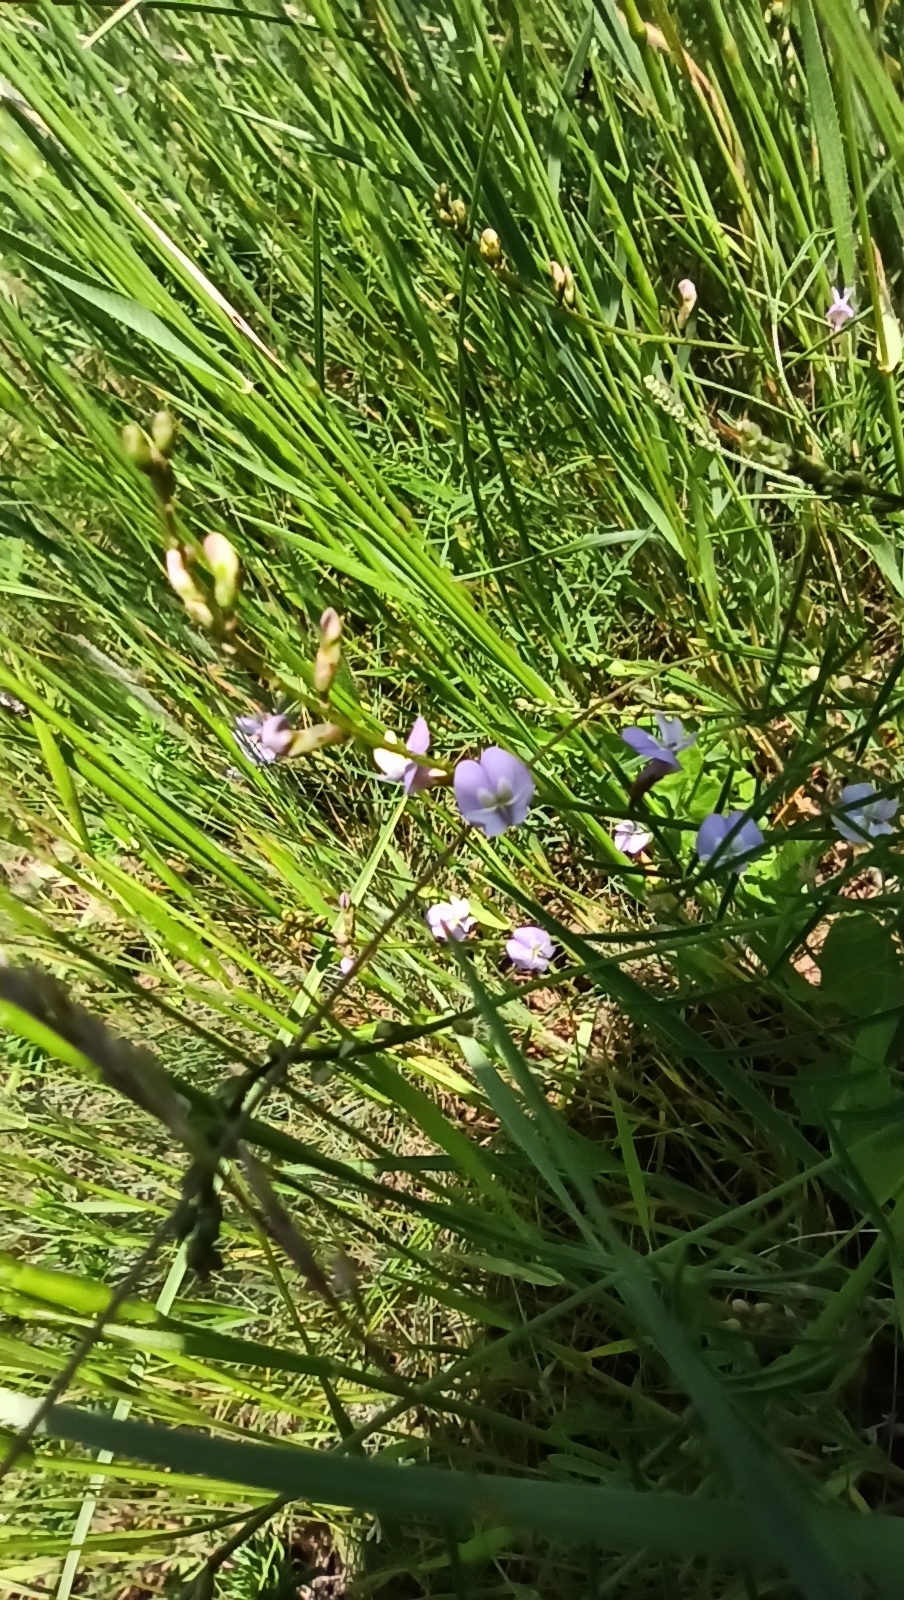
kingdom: Plantae
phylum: Tracheophyta
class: Magnoliopsida
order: Fabales
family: Fabaceae
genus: Astragalus
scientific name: Astragalus austriacus
